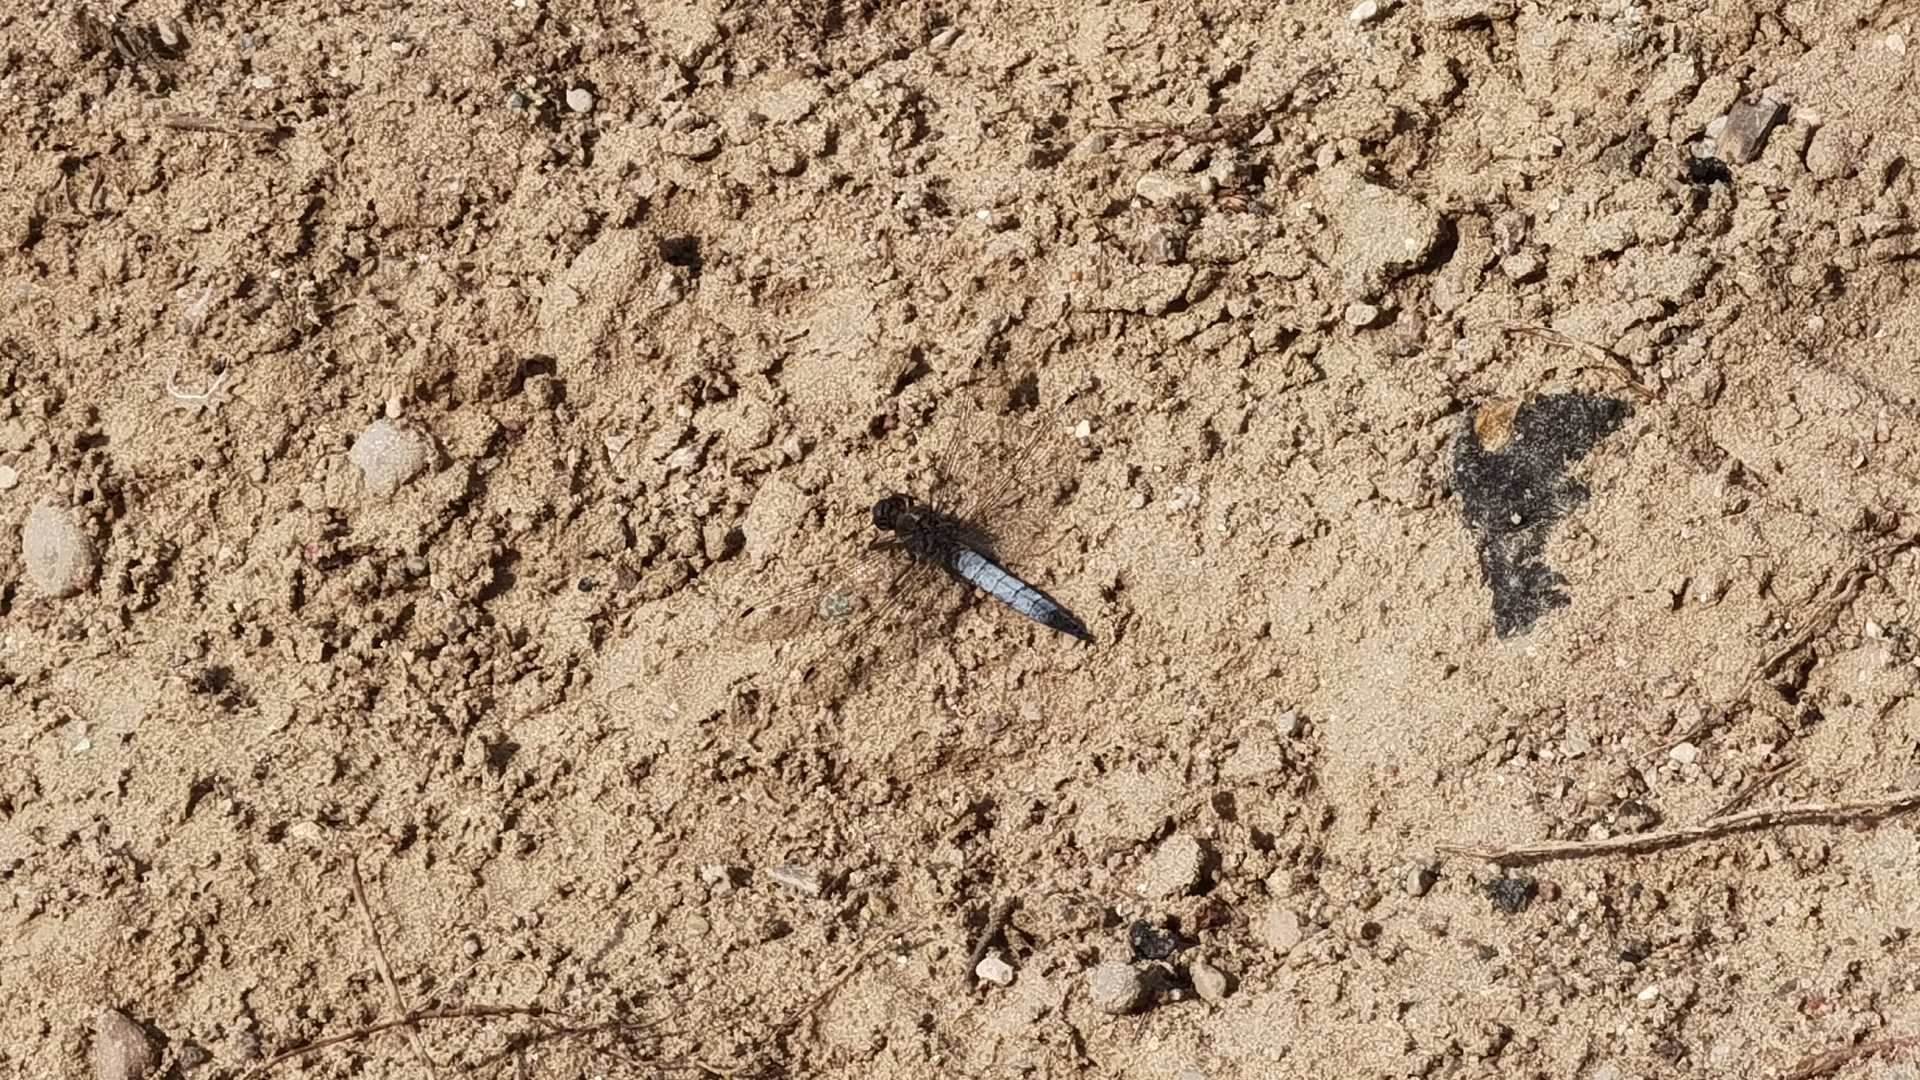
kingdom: Animalia
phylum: Arthropoda
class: Insecta
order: Odonata
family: Libellulidae
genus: Orthetrum
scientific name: Orthetrum cancellatum
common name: Black-tailed skimmer
